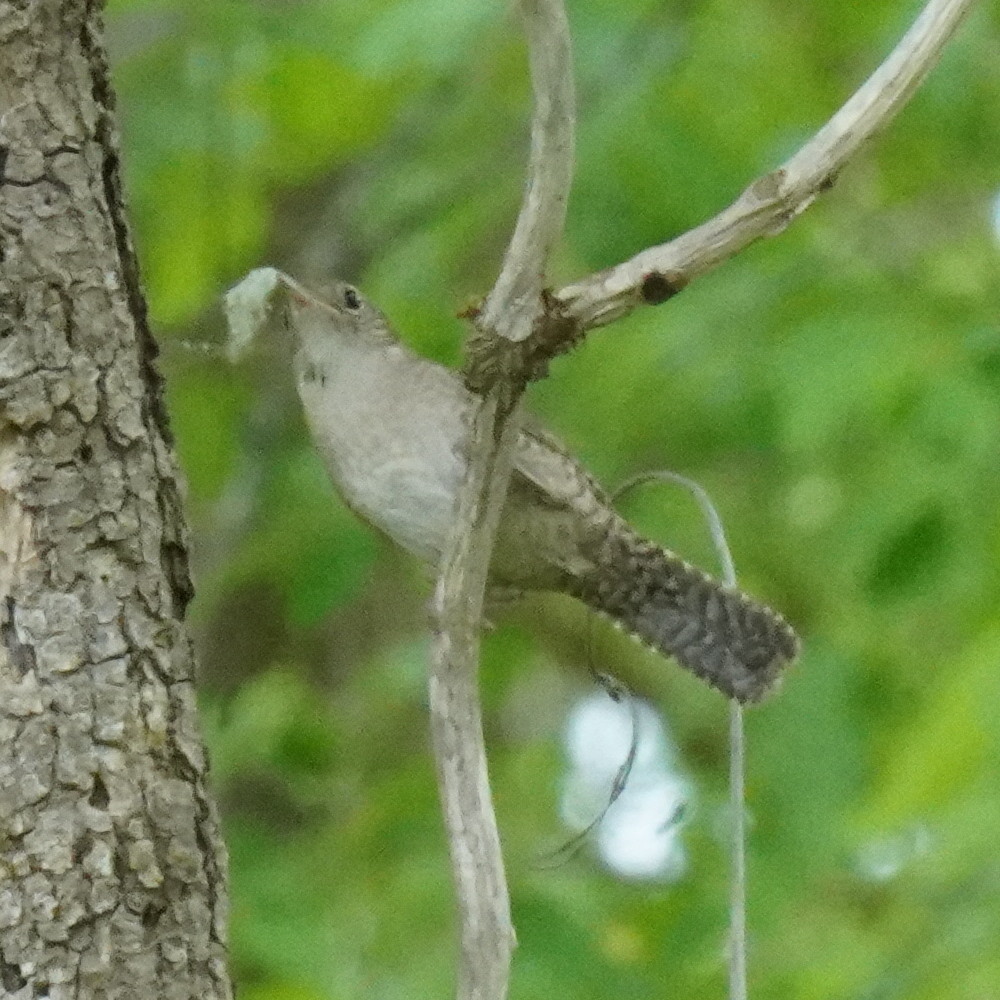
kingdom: Animalia
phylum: Chordata
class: Aves
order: Passeriformes
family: Troglodytidae
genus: Troglodytes
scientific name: Troglodytes aedon
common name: House wren
